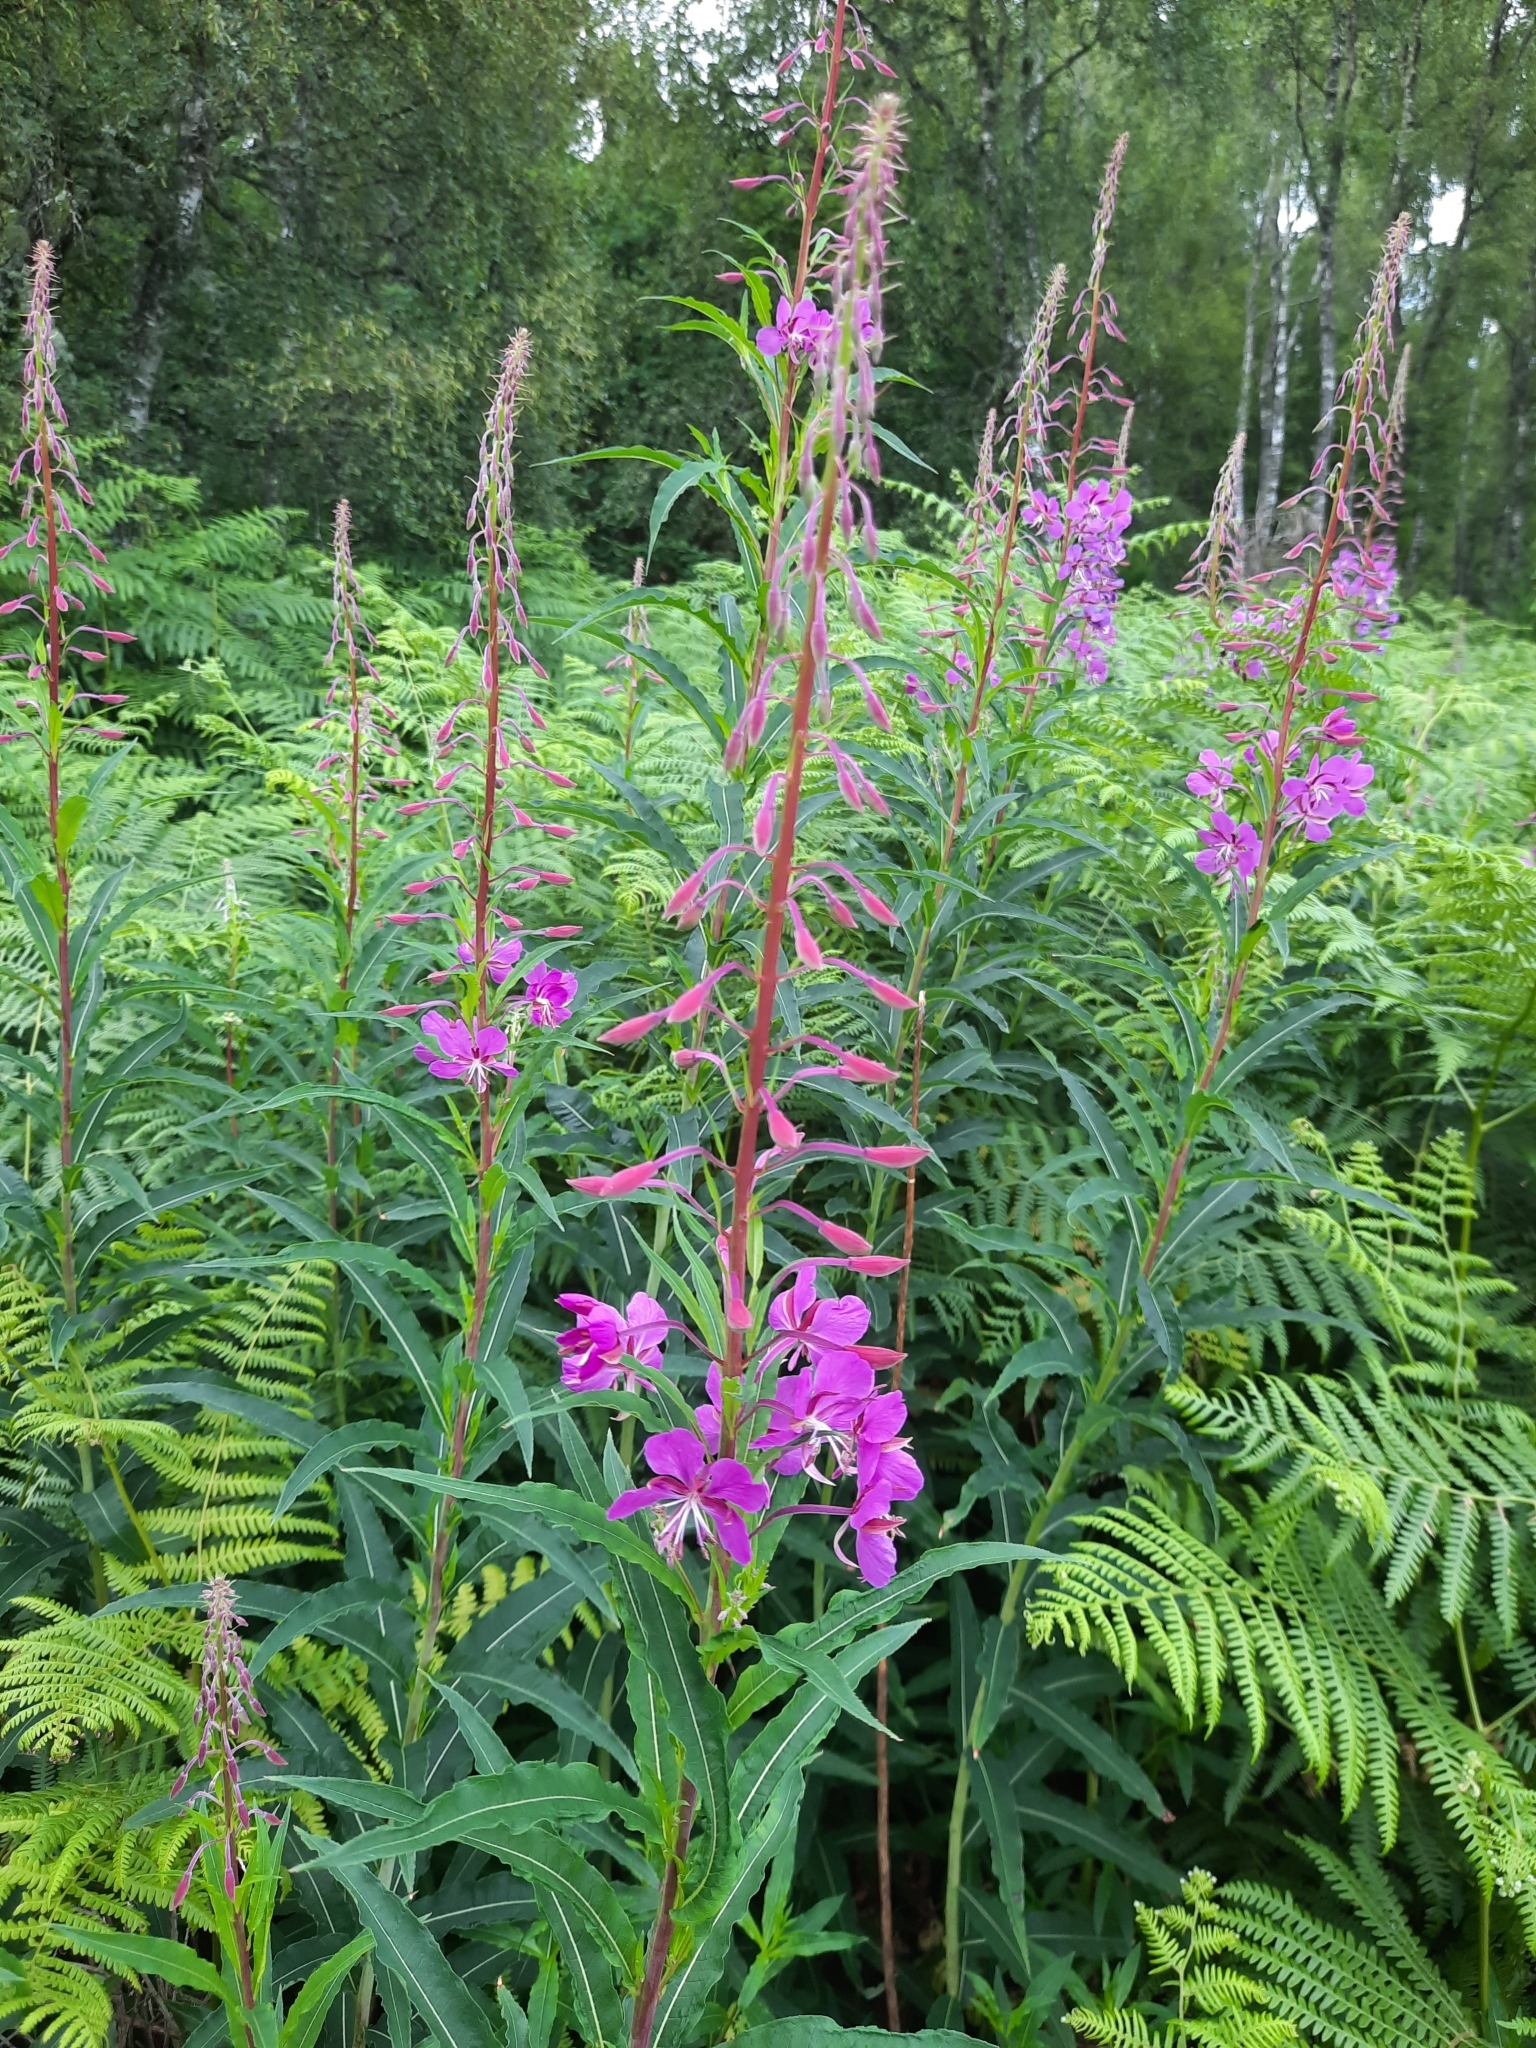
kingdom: Plantae
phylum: Tracheophyta
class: Magnoliopsida
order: Myrtales
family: Onagraceae
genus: Chamaenerion
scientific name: Chamaenerion angustifolium
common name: Fireweed
